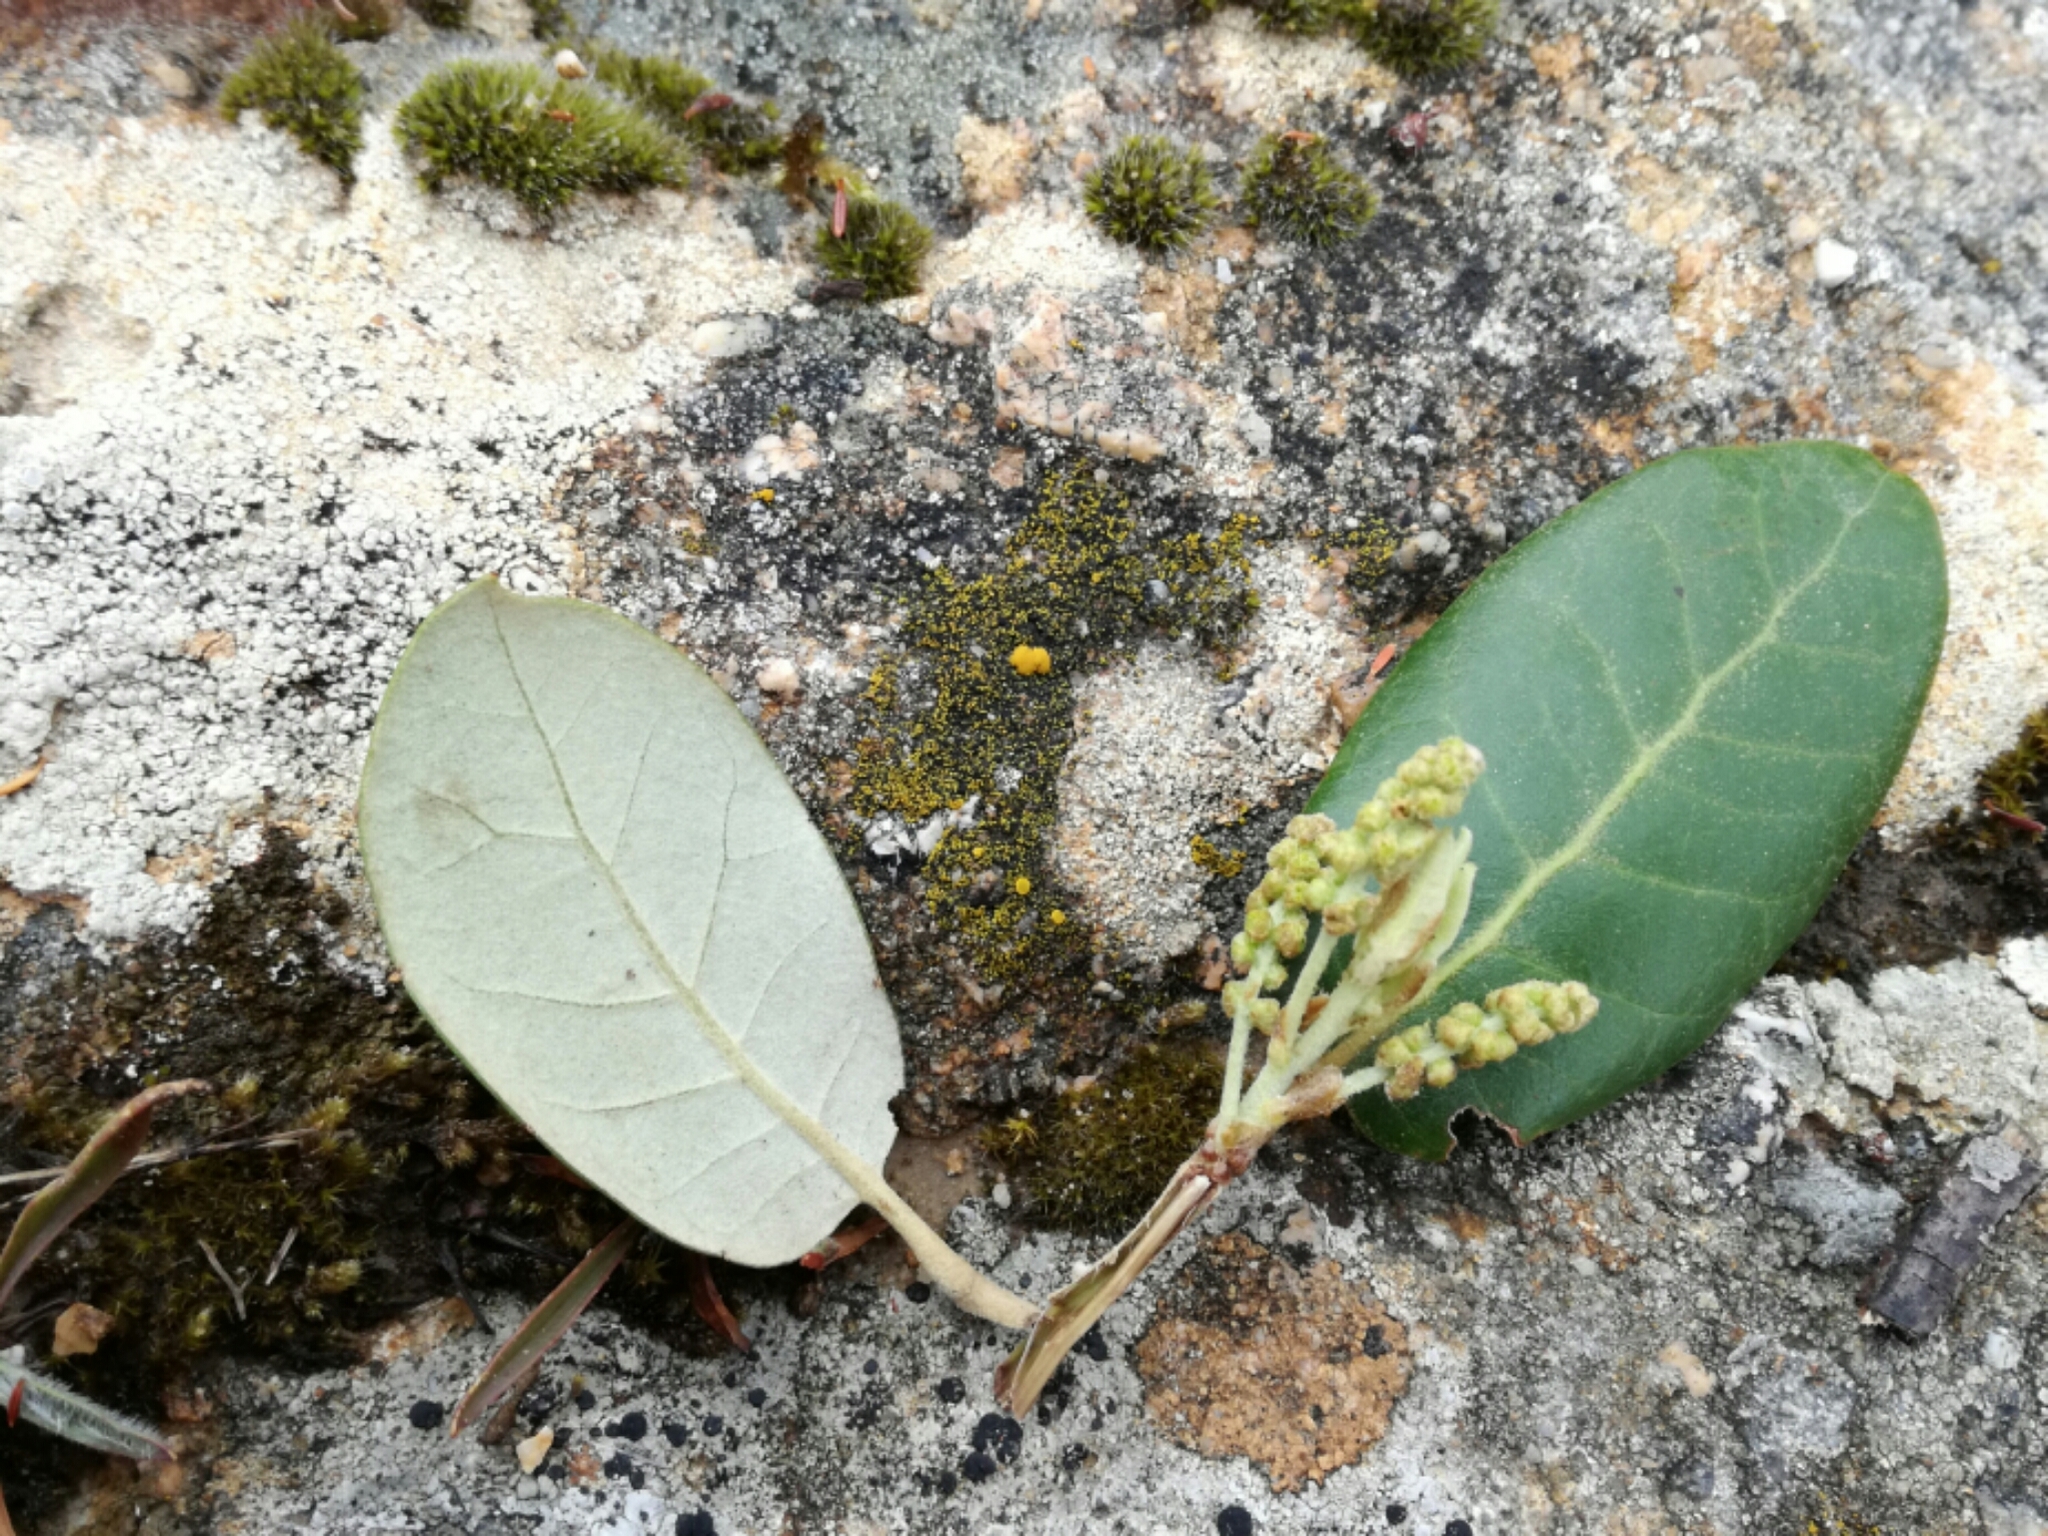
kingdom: Plantae
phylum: Tracheophyta
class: Magnoliopsida
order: Fagales
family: Fagaceae
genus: Quercus
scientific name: Quercus ilex
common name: Evergreen oak
